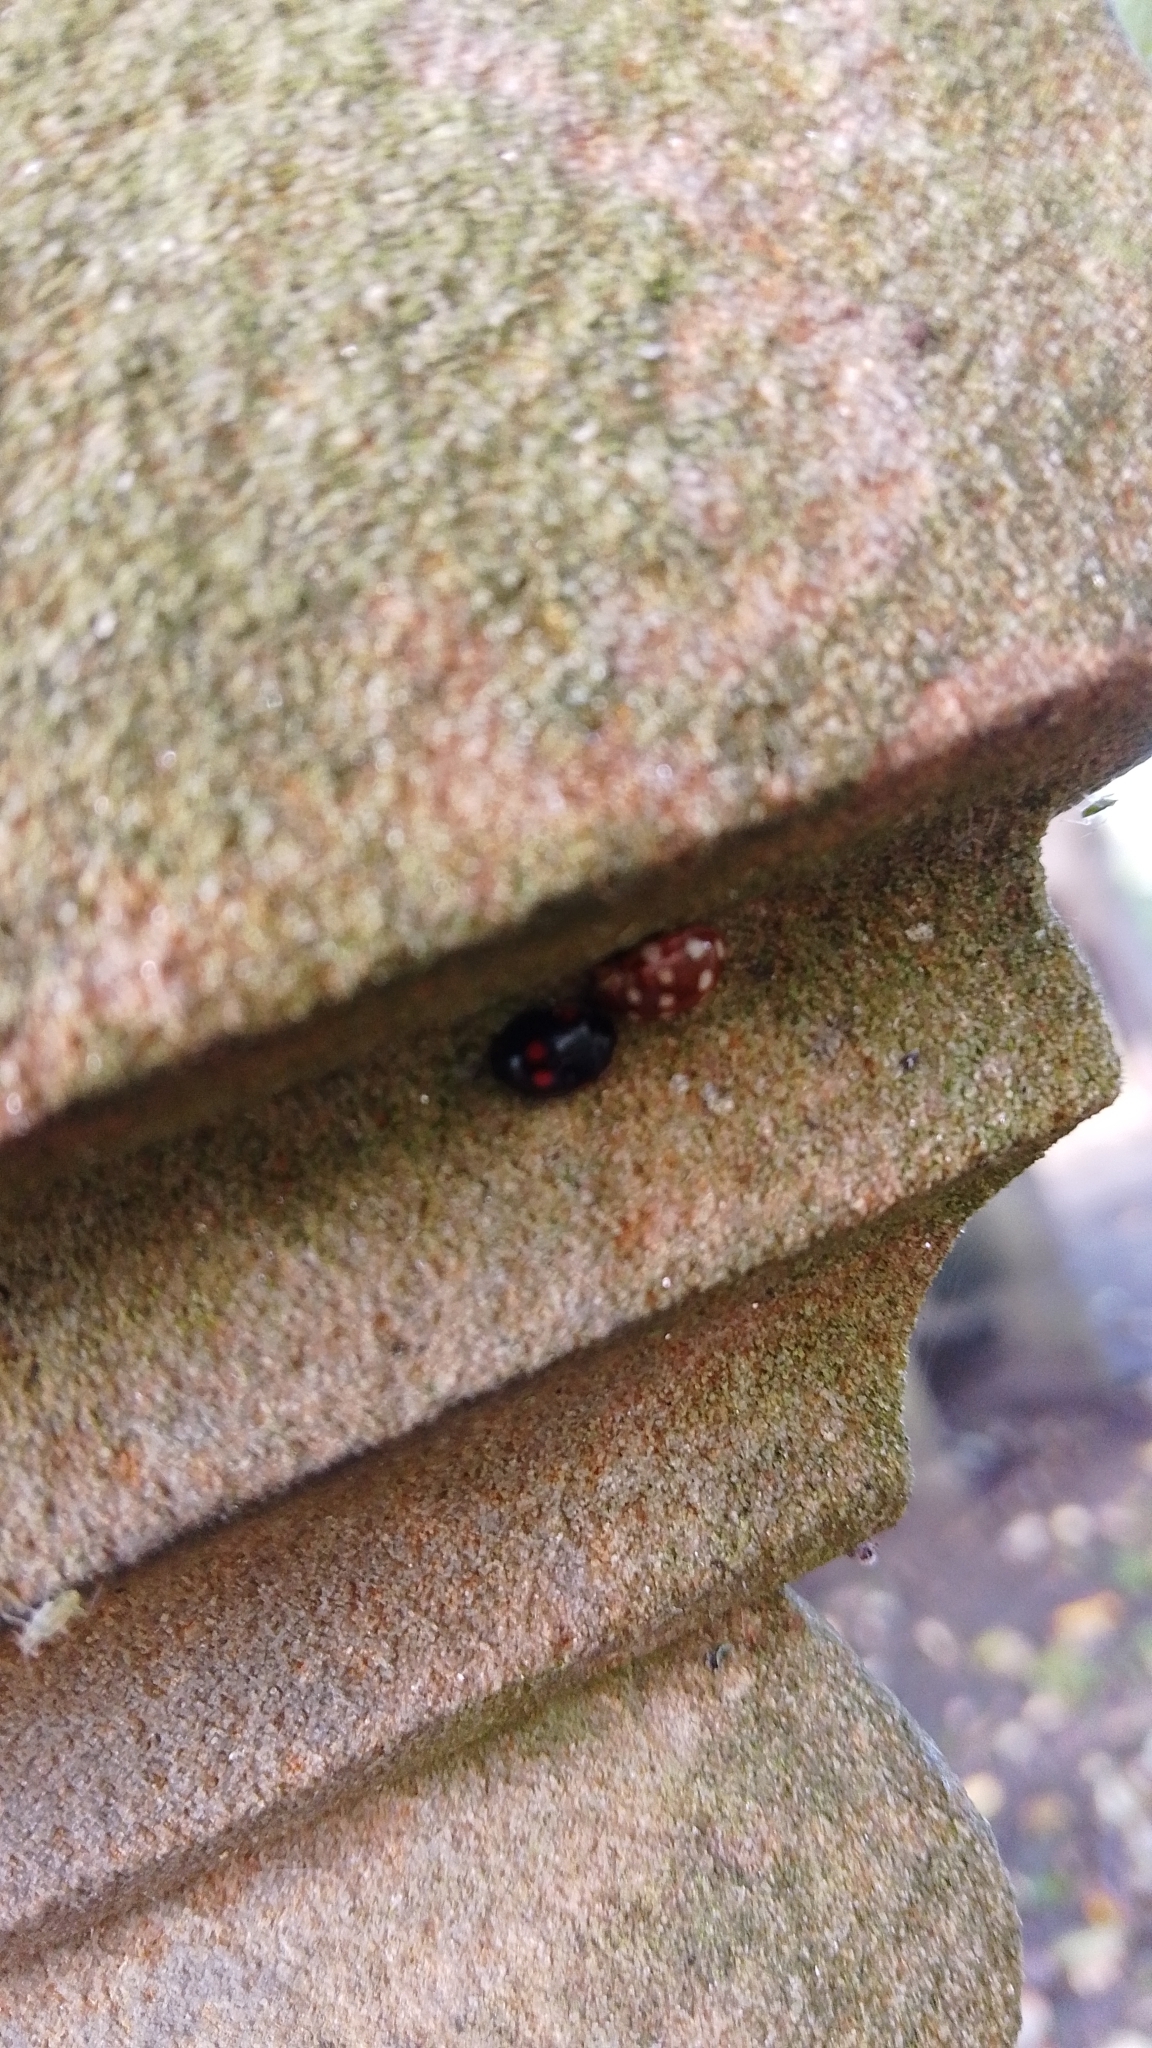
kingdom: Animalia
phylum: Arthropoda
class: Insecta
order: Coleoptera
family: Coccinellidae
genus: Calvia
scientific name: Calvia quatuordecimguttata
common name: Cream-spot ladybird
